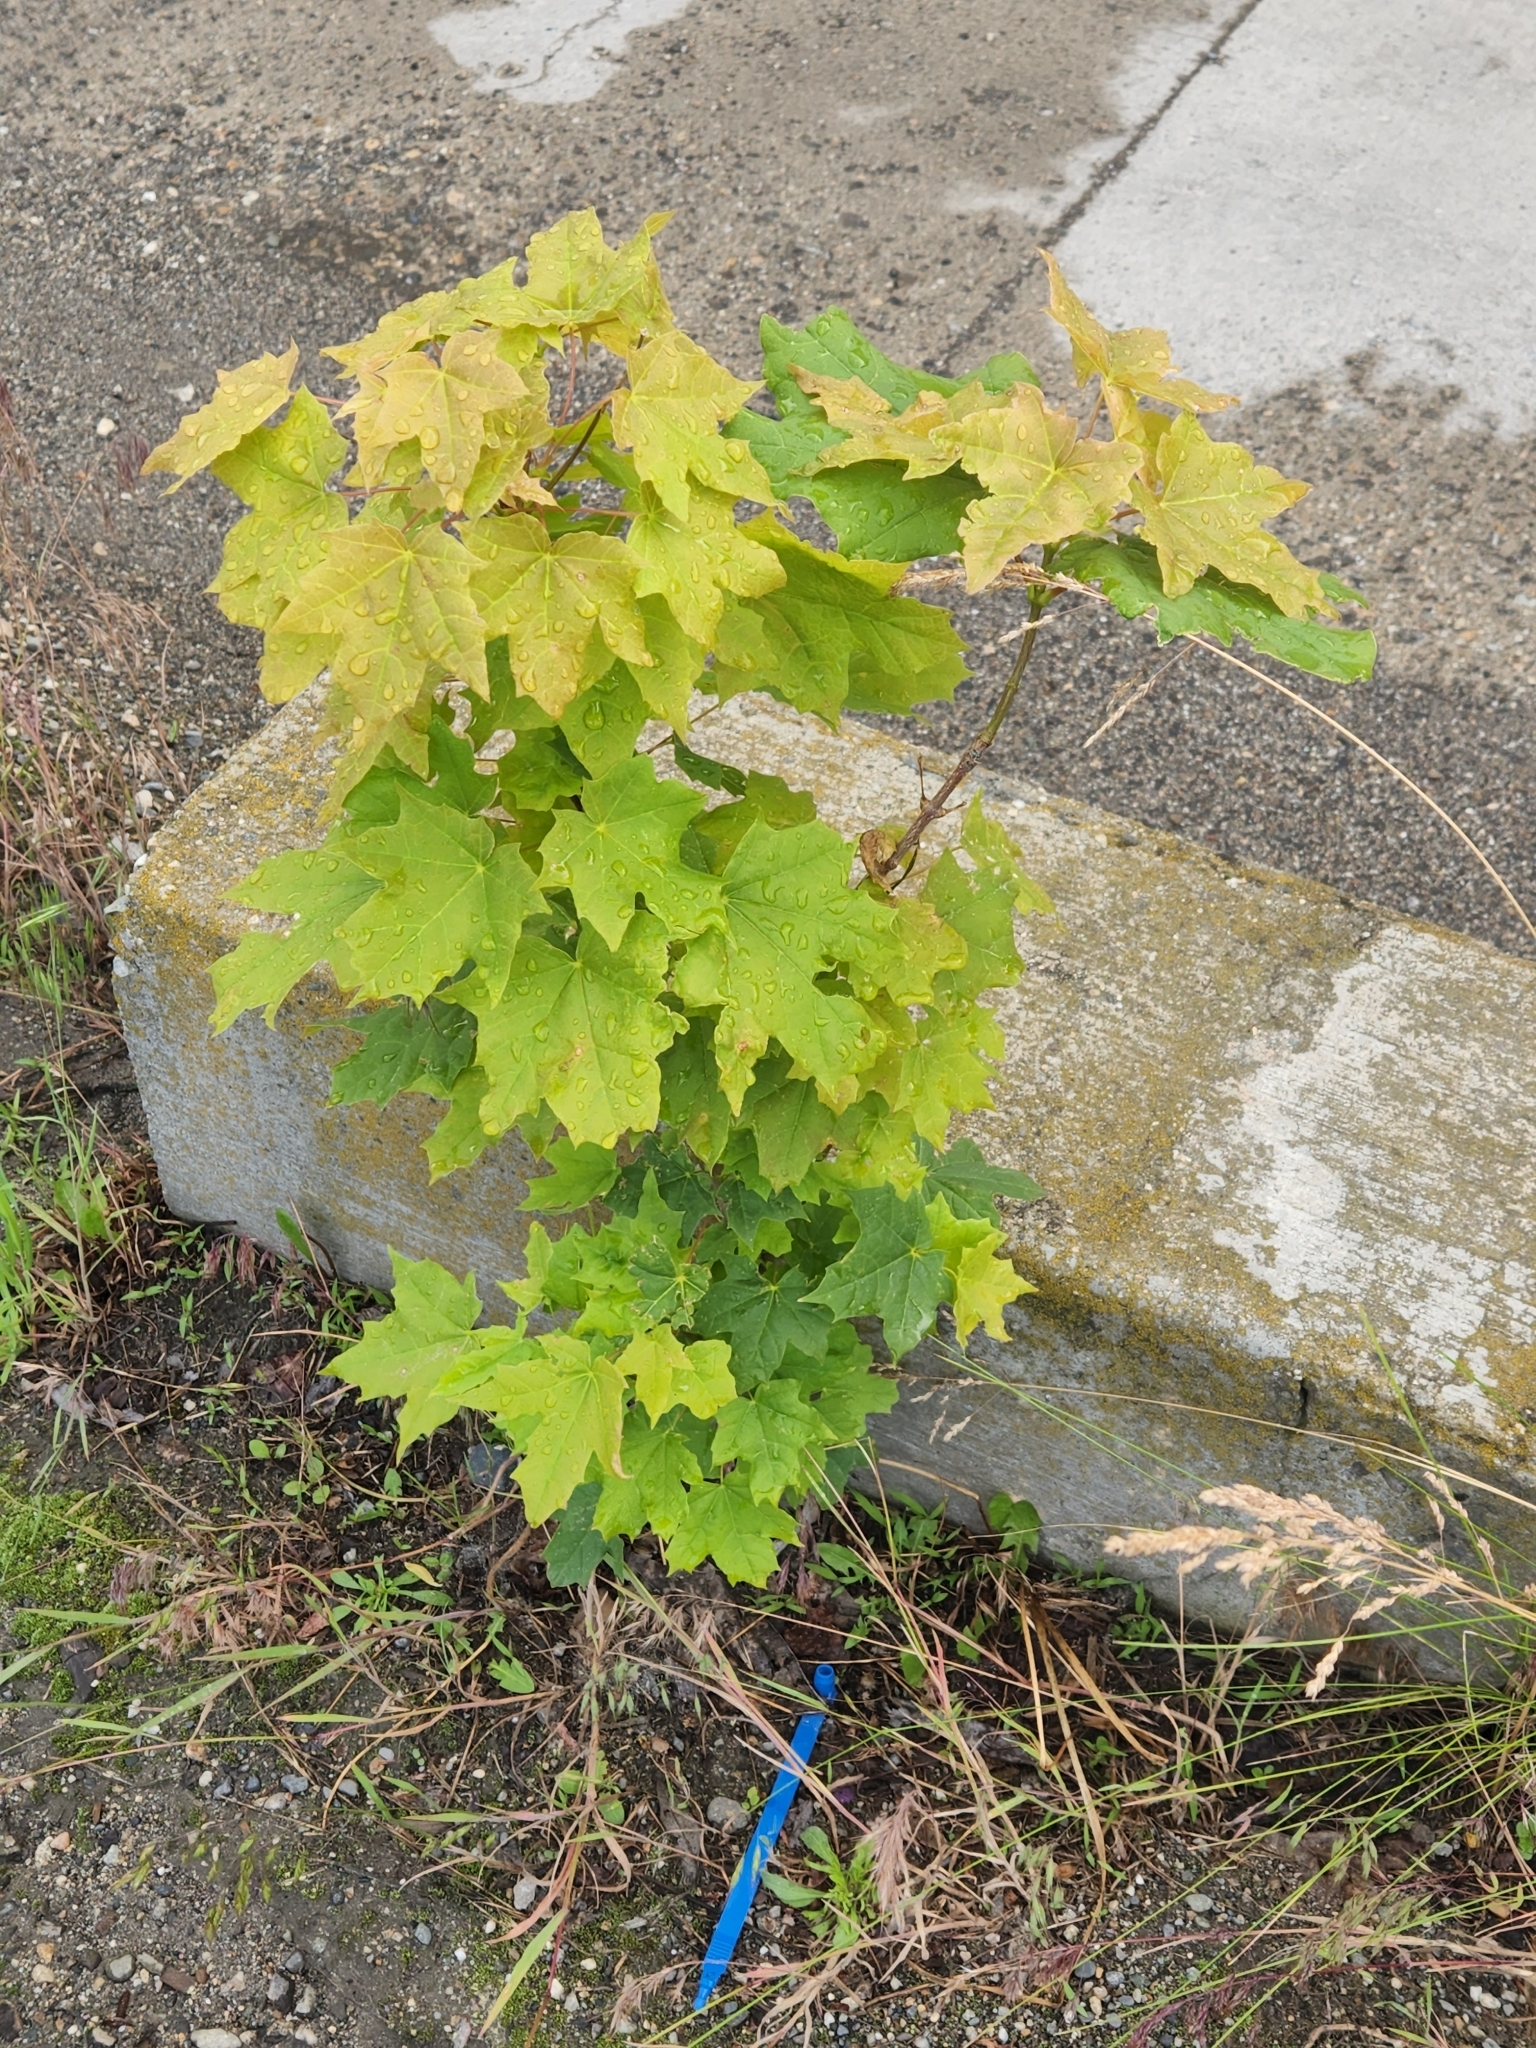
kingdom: Plantae
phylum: Tracheophyta
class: Magnoliopsida
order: Sapindales
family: Sapindaceae
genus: Acer
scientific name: Acer platanoides
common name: Norway maple
